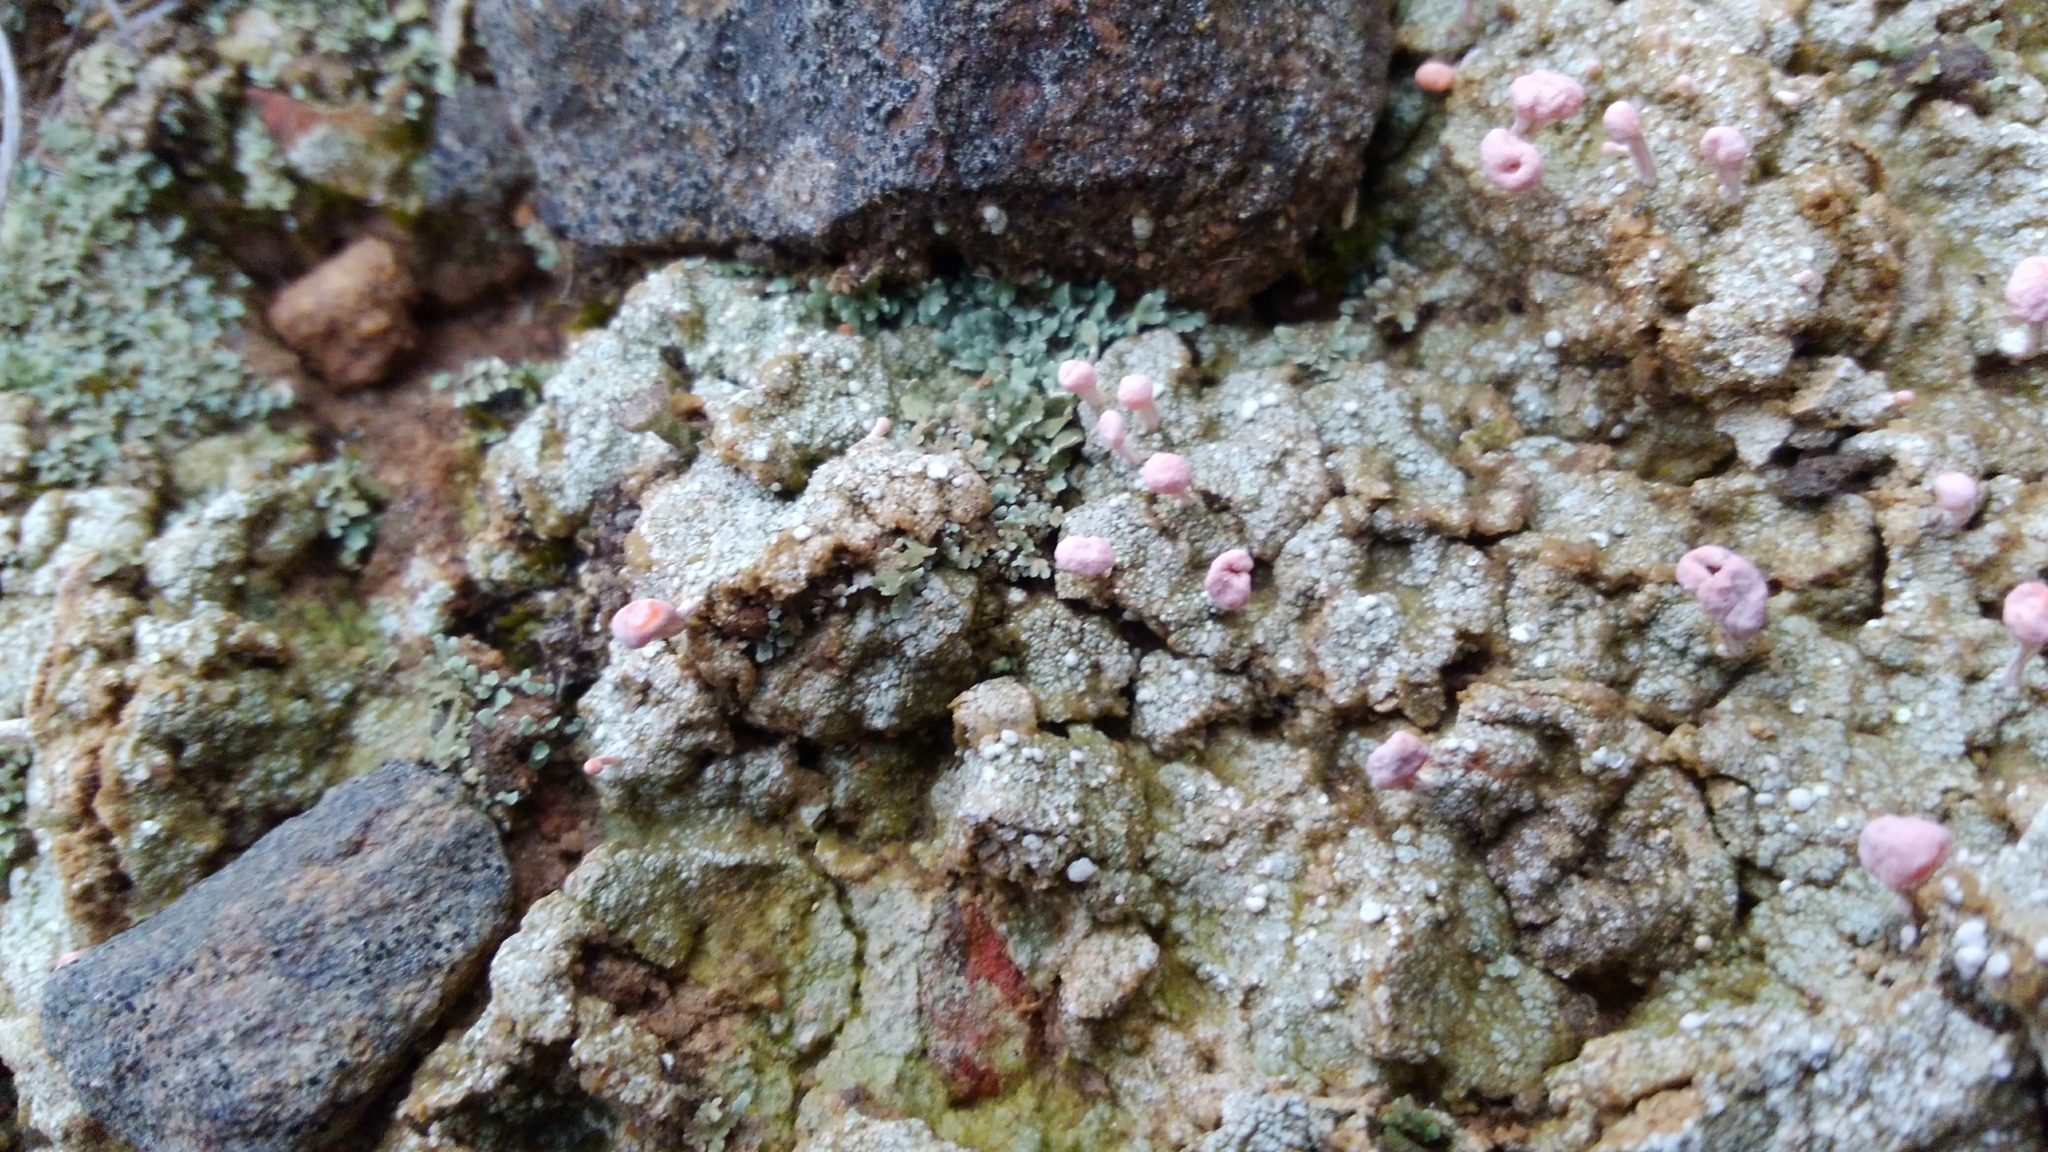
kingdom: Fungi
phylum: Ascomycota
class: Lecanoromycetes
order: Pertusariales
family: Icmadophilaceae
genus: Dibaeis
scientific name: Dibaeis baeomyces
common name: Pink earth lichen
